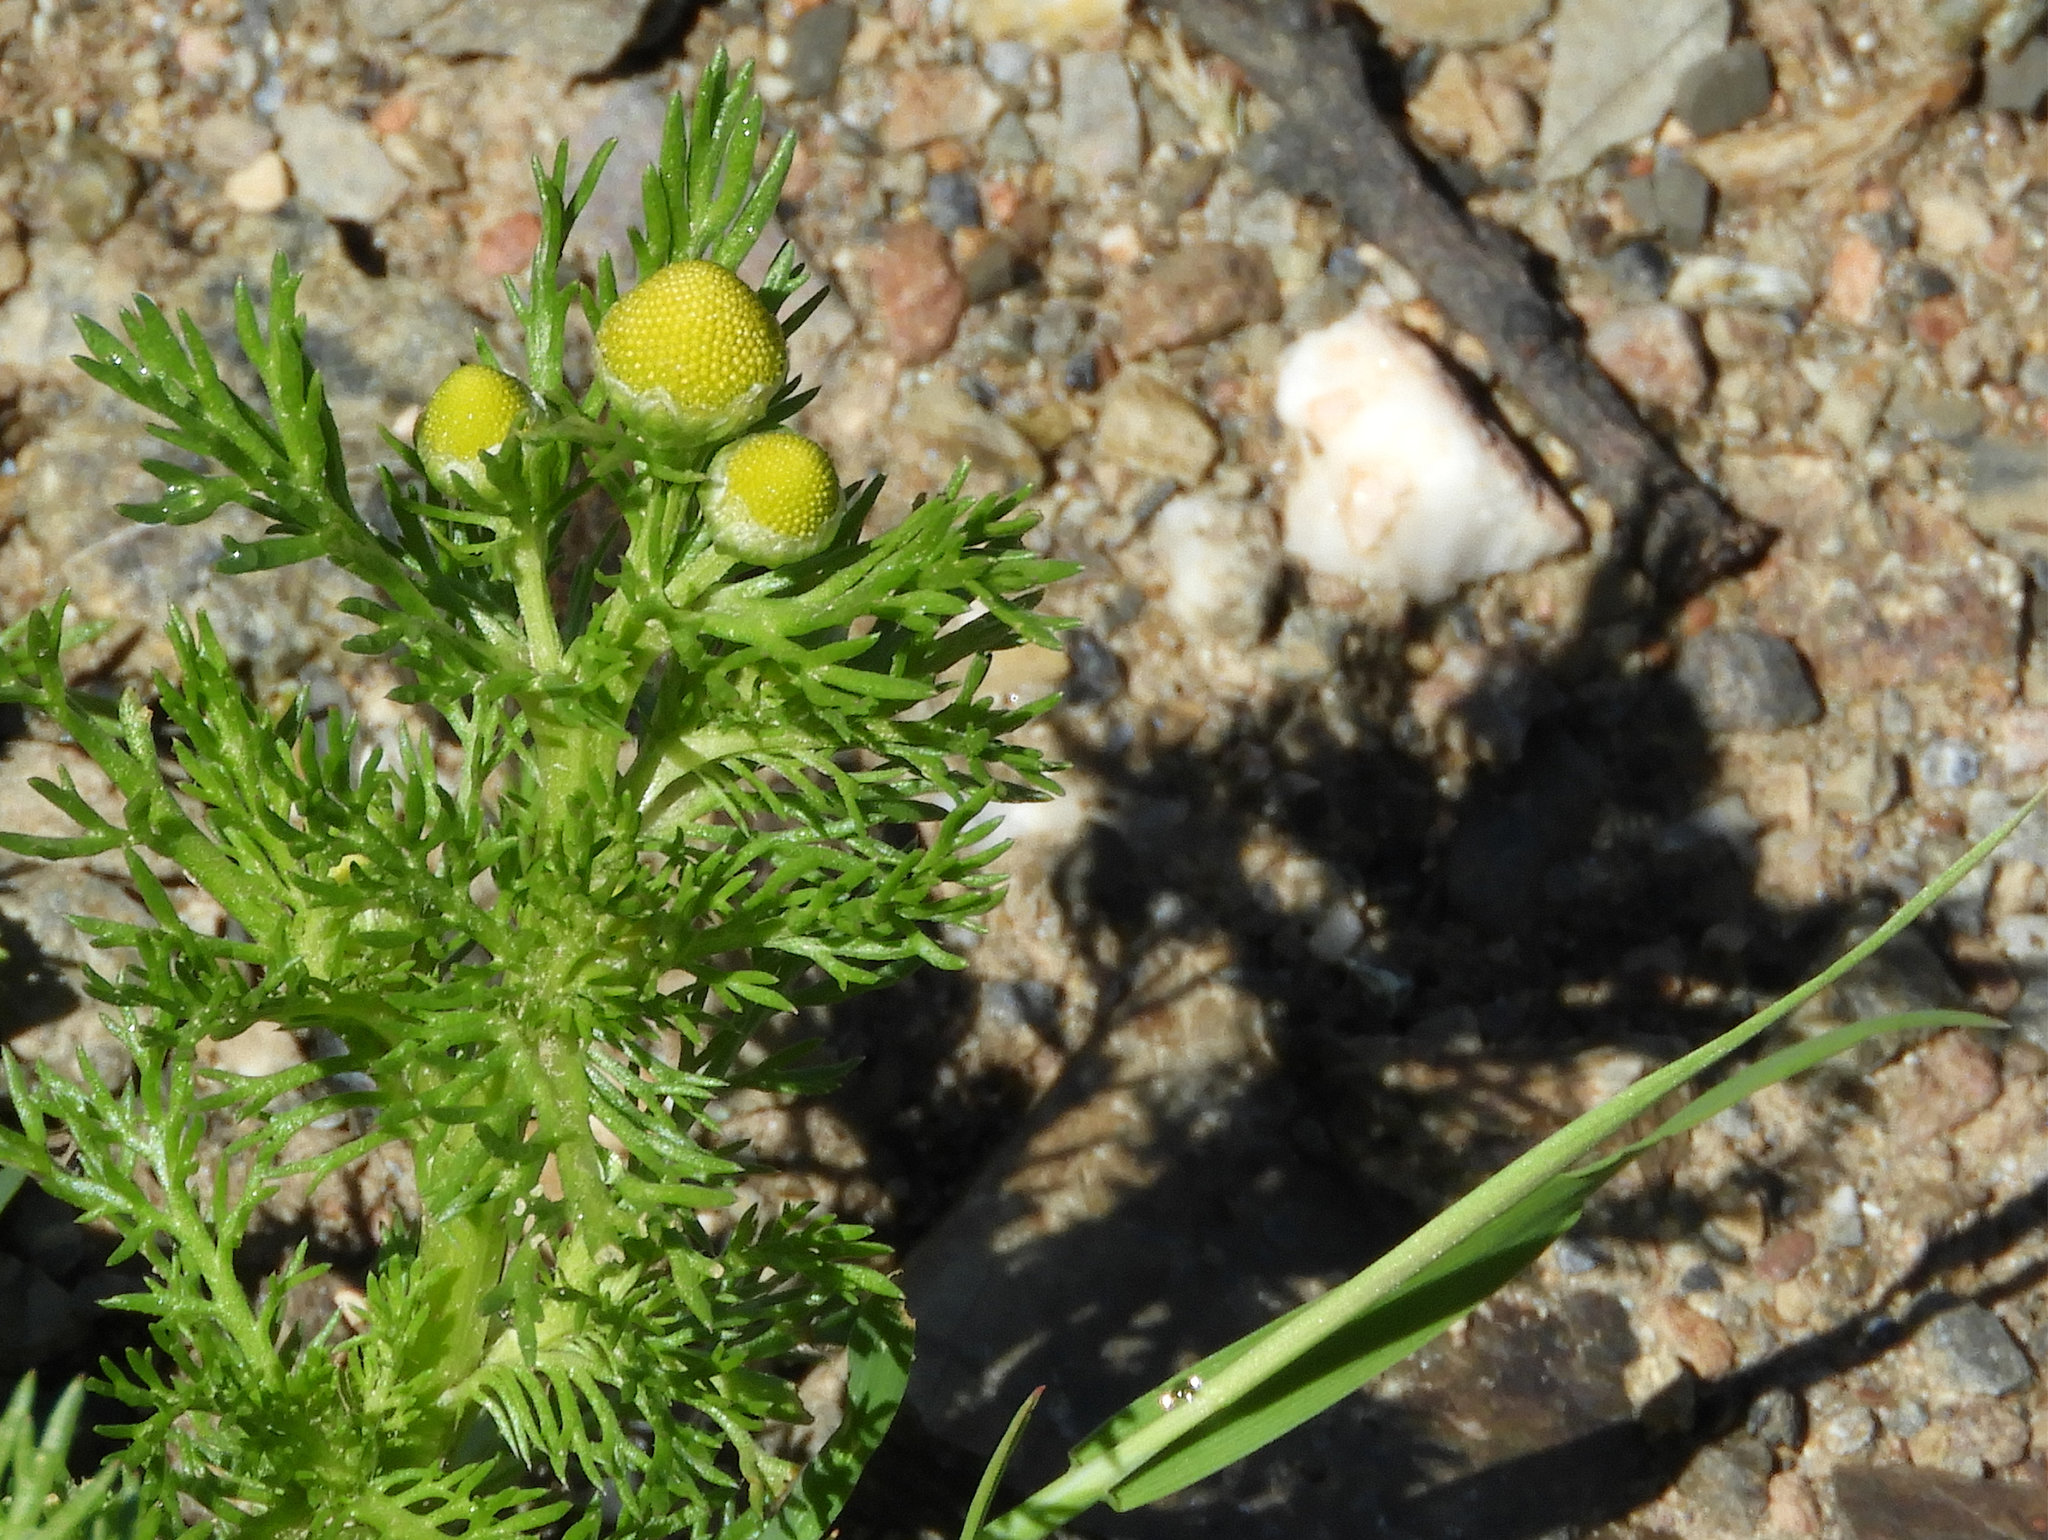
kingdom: Plantae
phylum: Tracheophyta
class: Magnoliopsida
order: Asterales
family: Asteraceae
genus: Matricaria
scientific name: Matricaria discoidea
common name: Disc mayweed
